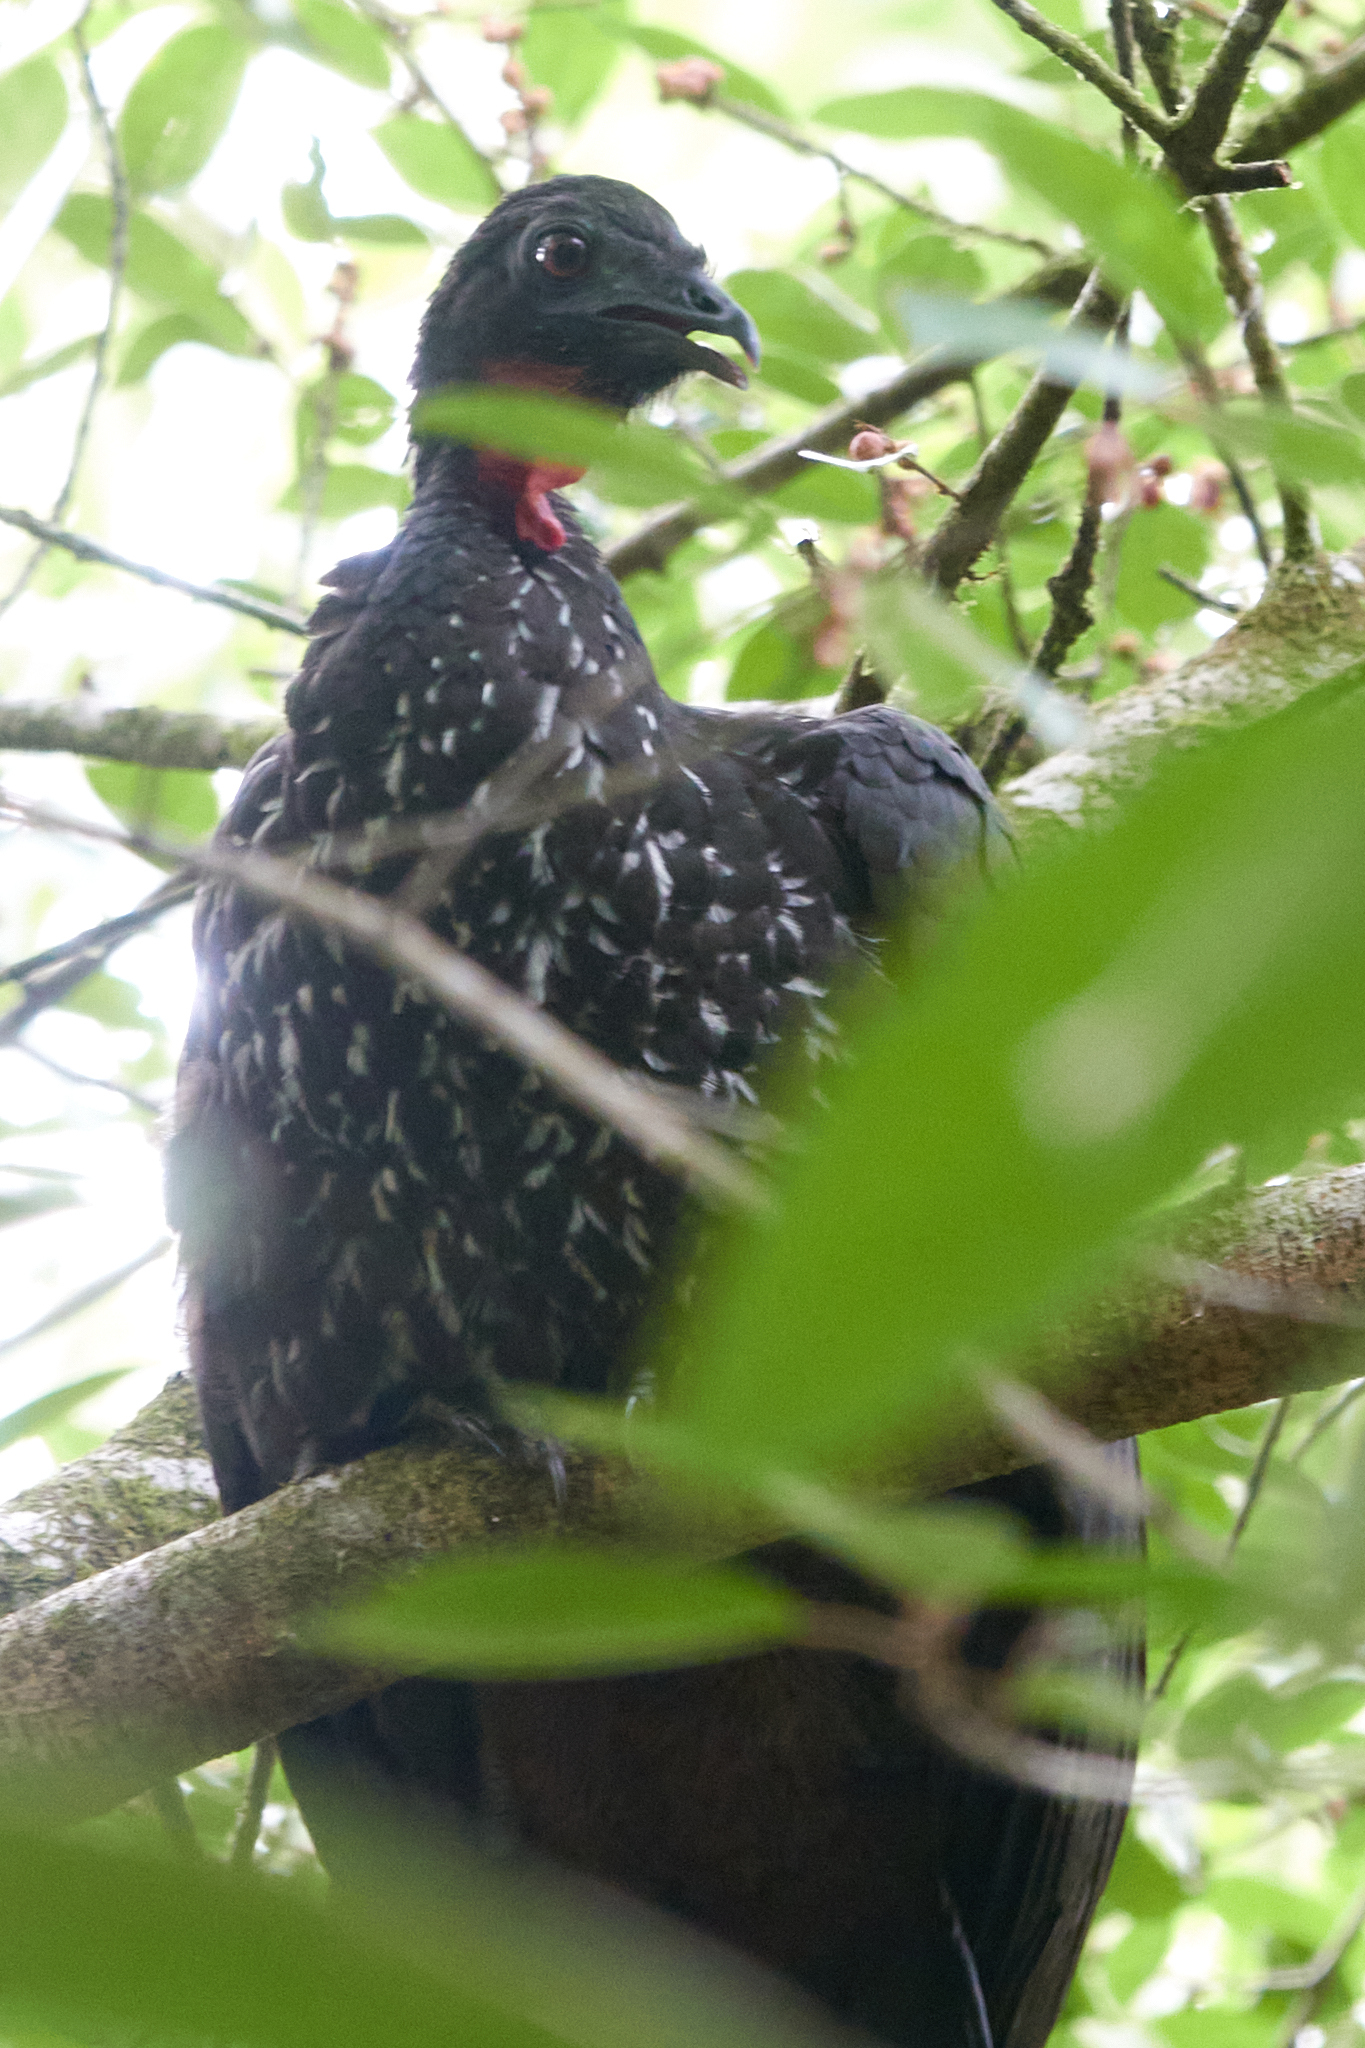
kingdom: Animalia
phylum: Chordata
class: Aves
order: Galliformes
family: Cracidae
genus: Penelope
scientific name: Penelope purpurascens
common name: Crested guan
